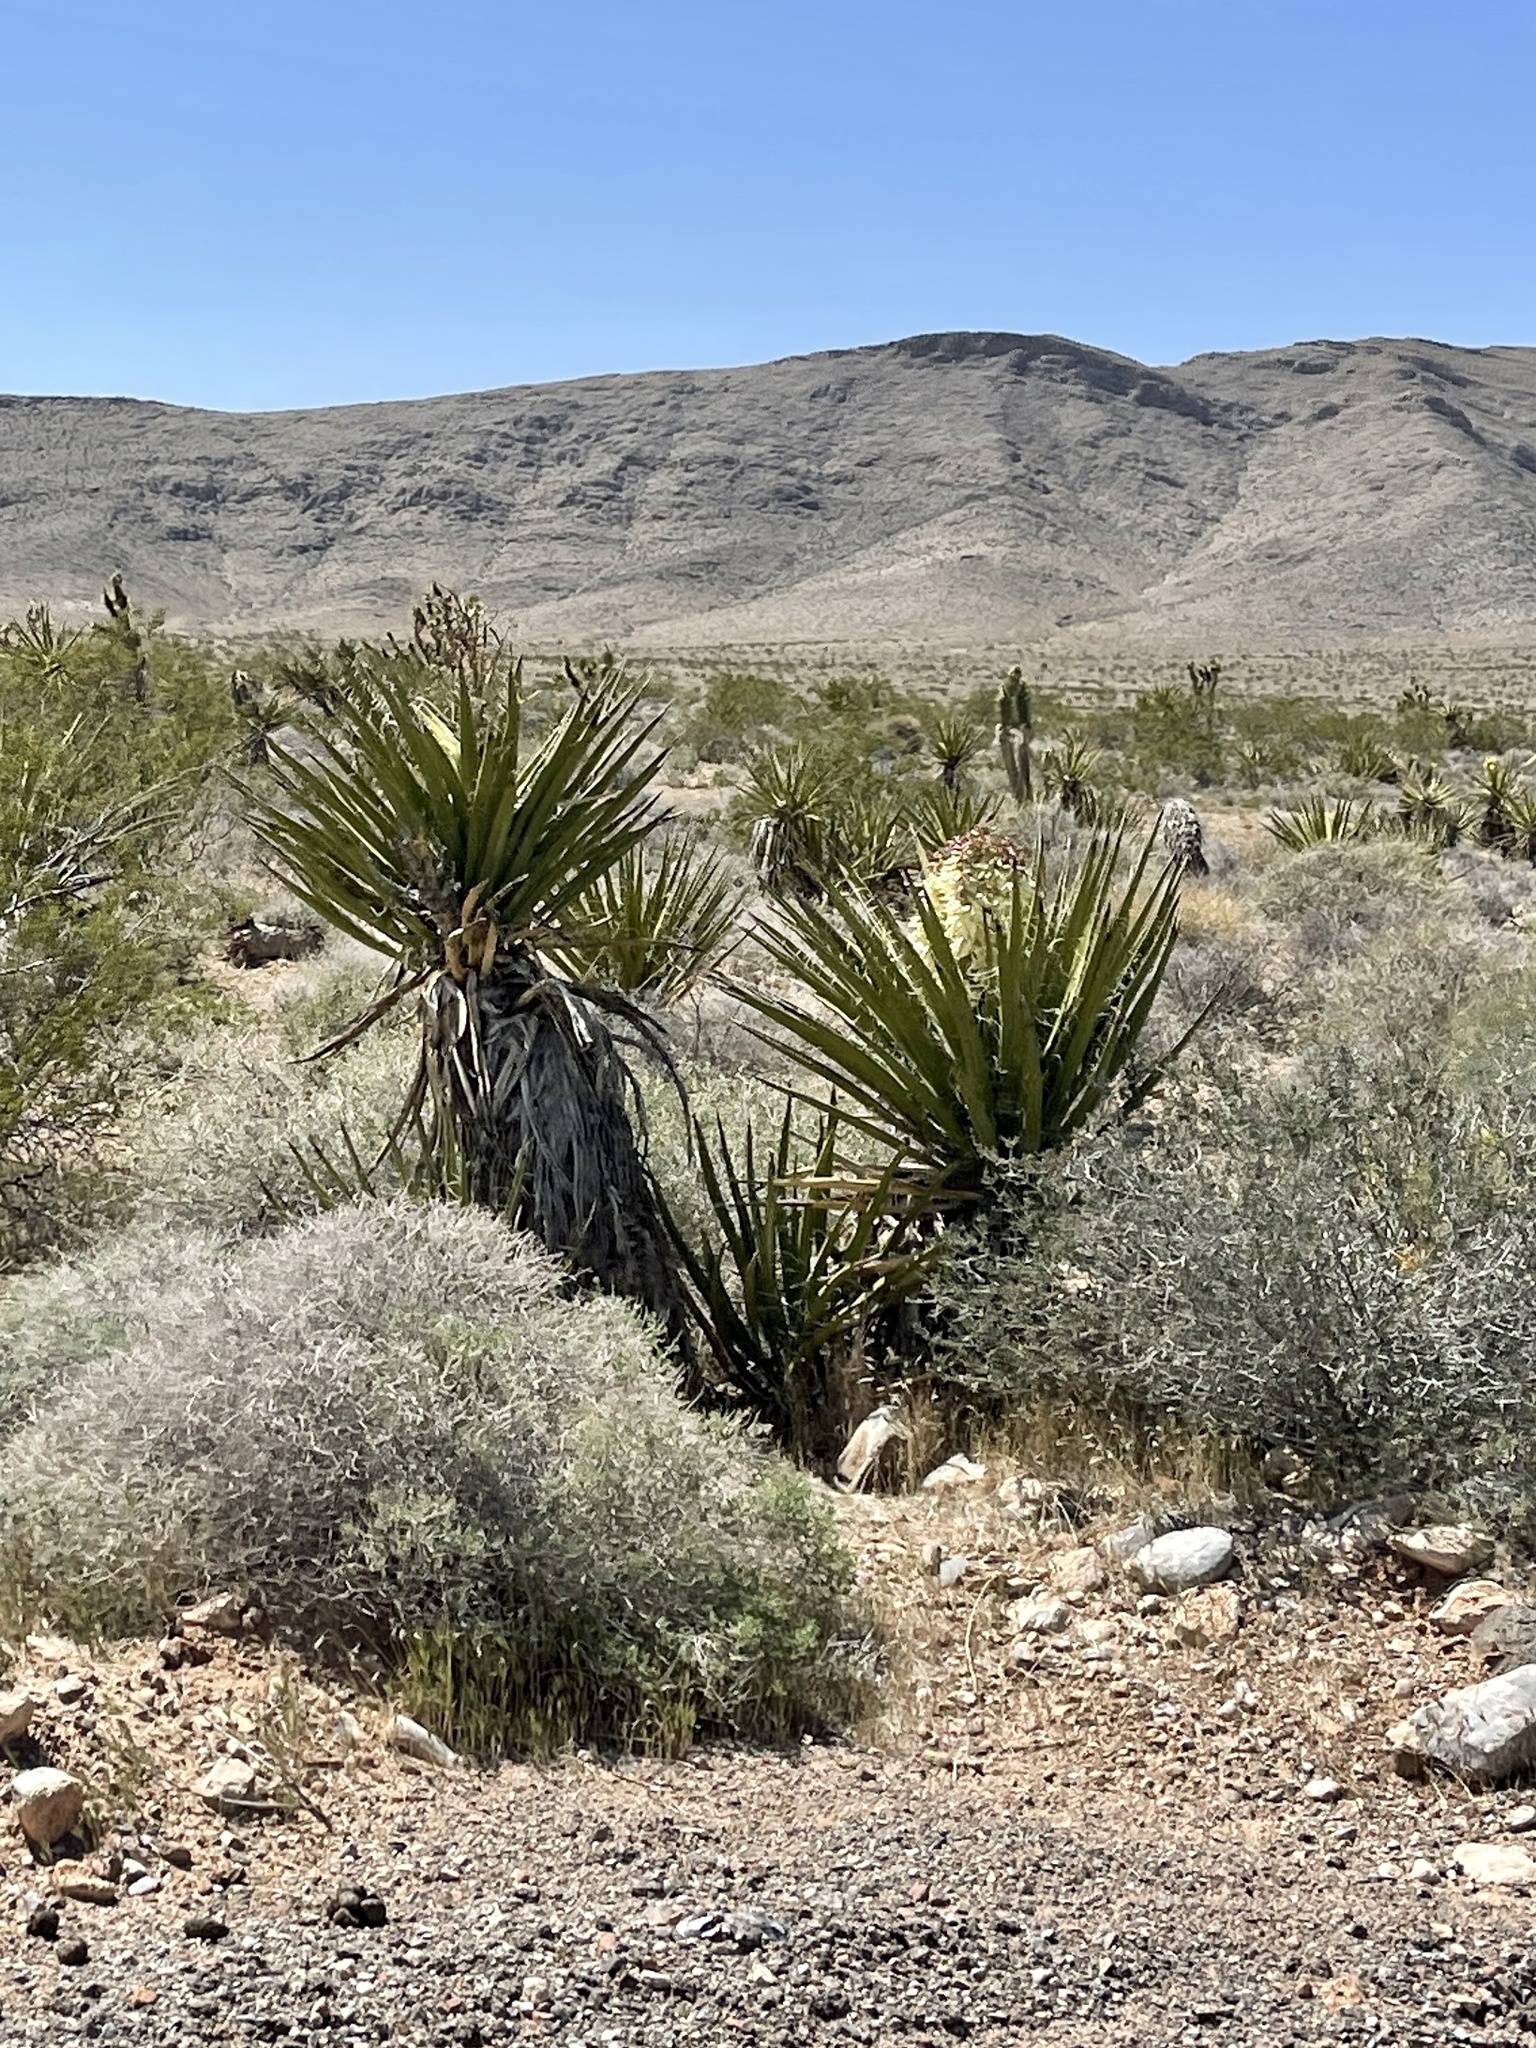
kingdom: Plantae
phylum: Tracheophyta
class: Liliopsida
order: Asparagales
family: Asparagaceae
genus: Yucca
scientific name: Yucca schidigera
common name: Mojave yucca
